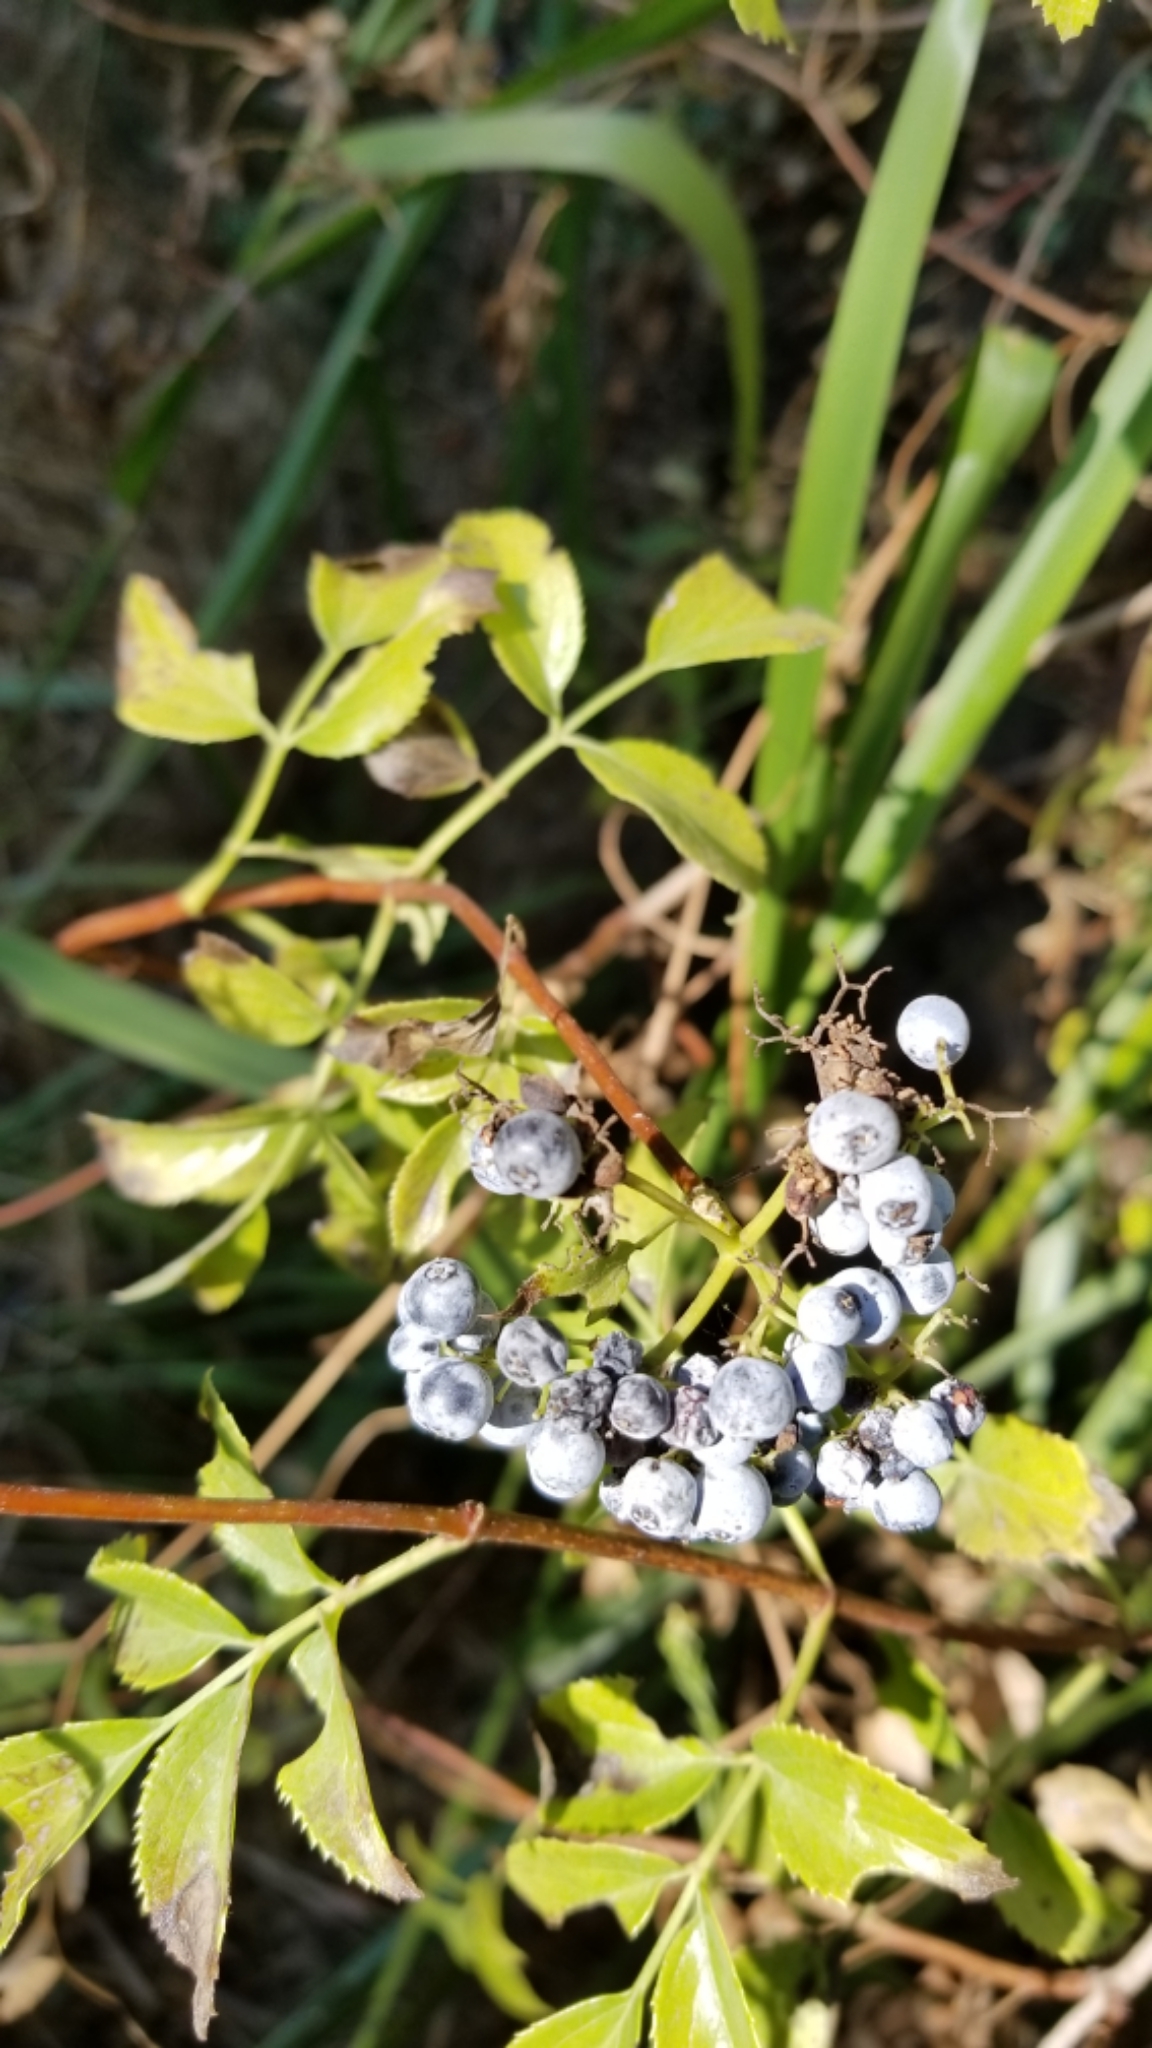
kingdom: Plantae
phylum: Tracheophyta
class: Magnoliopsida
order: Dipsacales
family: Viburnaceae
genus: Sambucus
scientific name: Sambucus cerulea
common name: Blue elder
